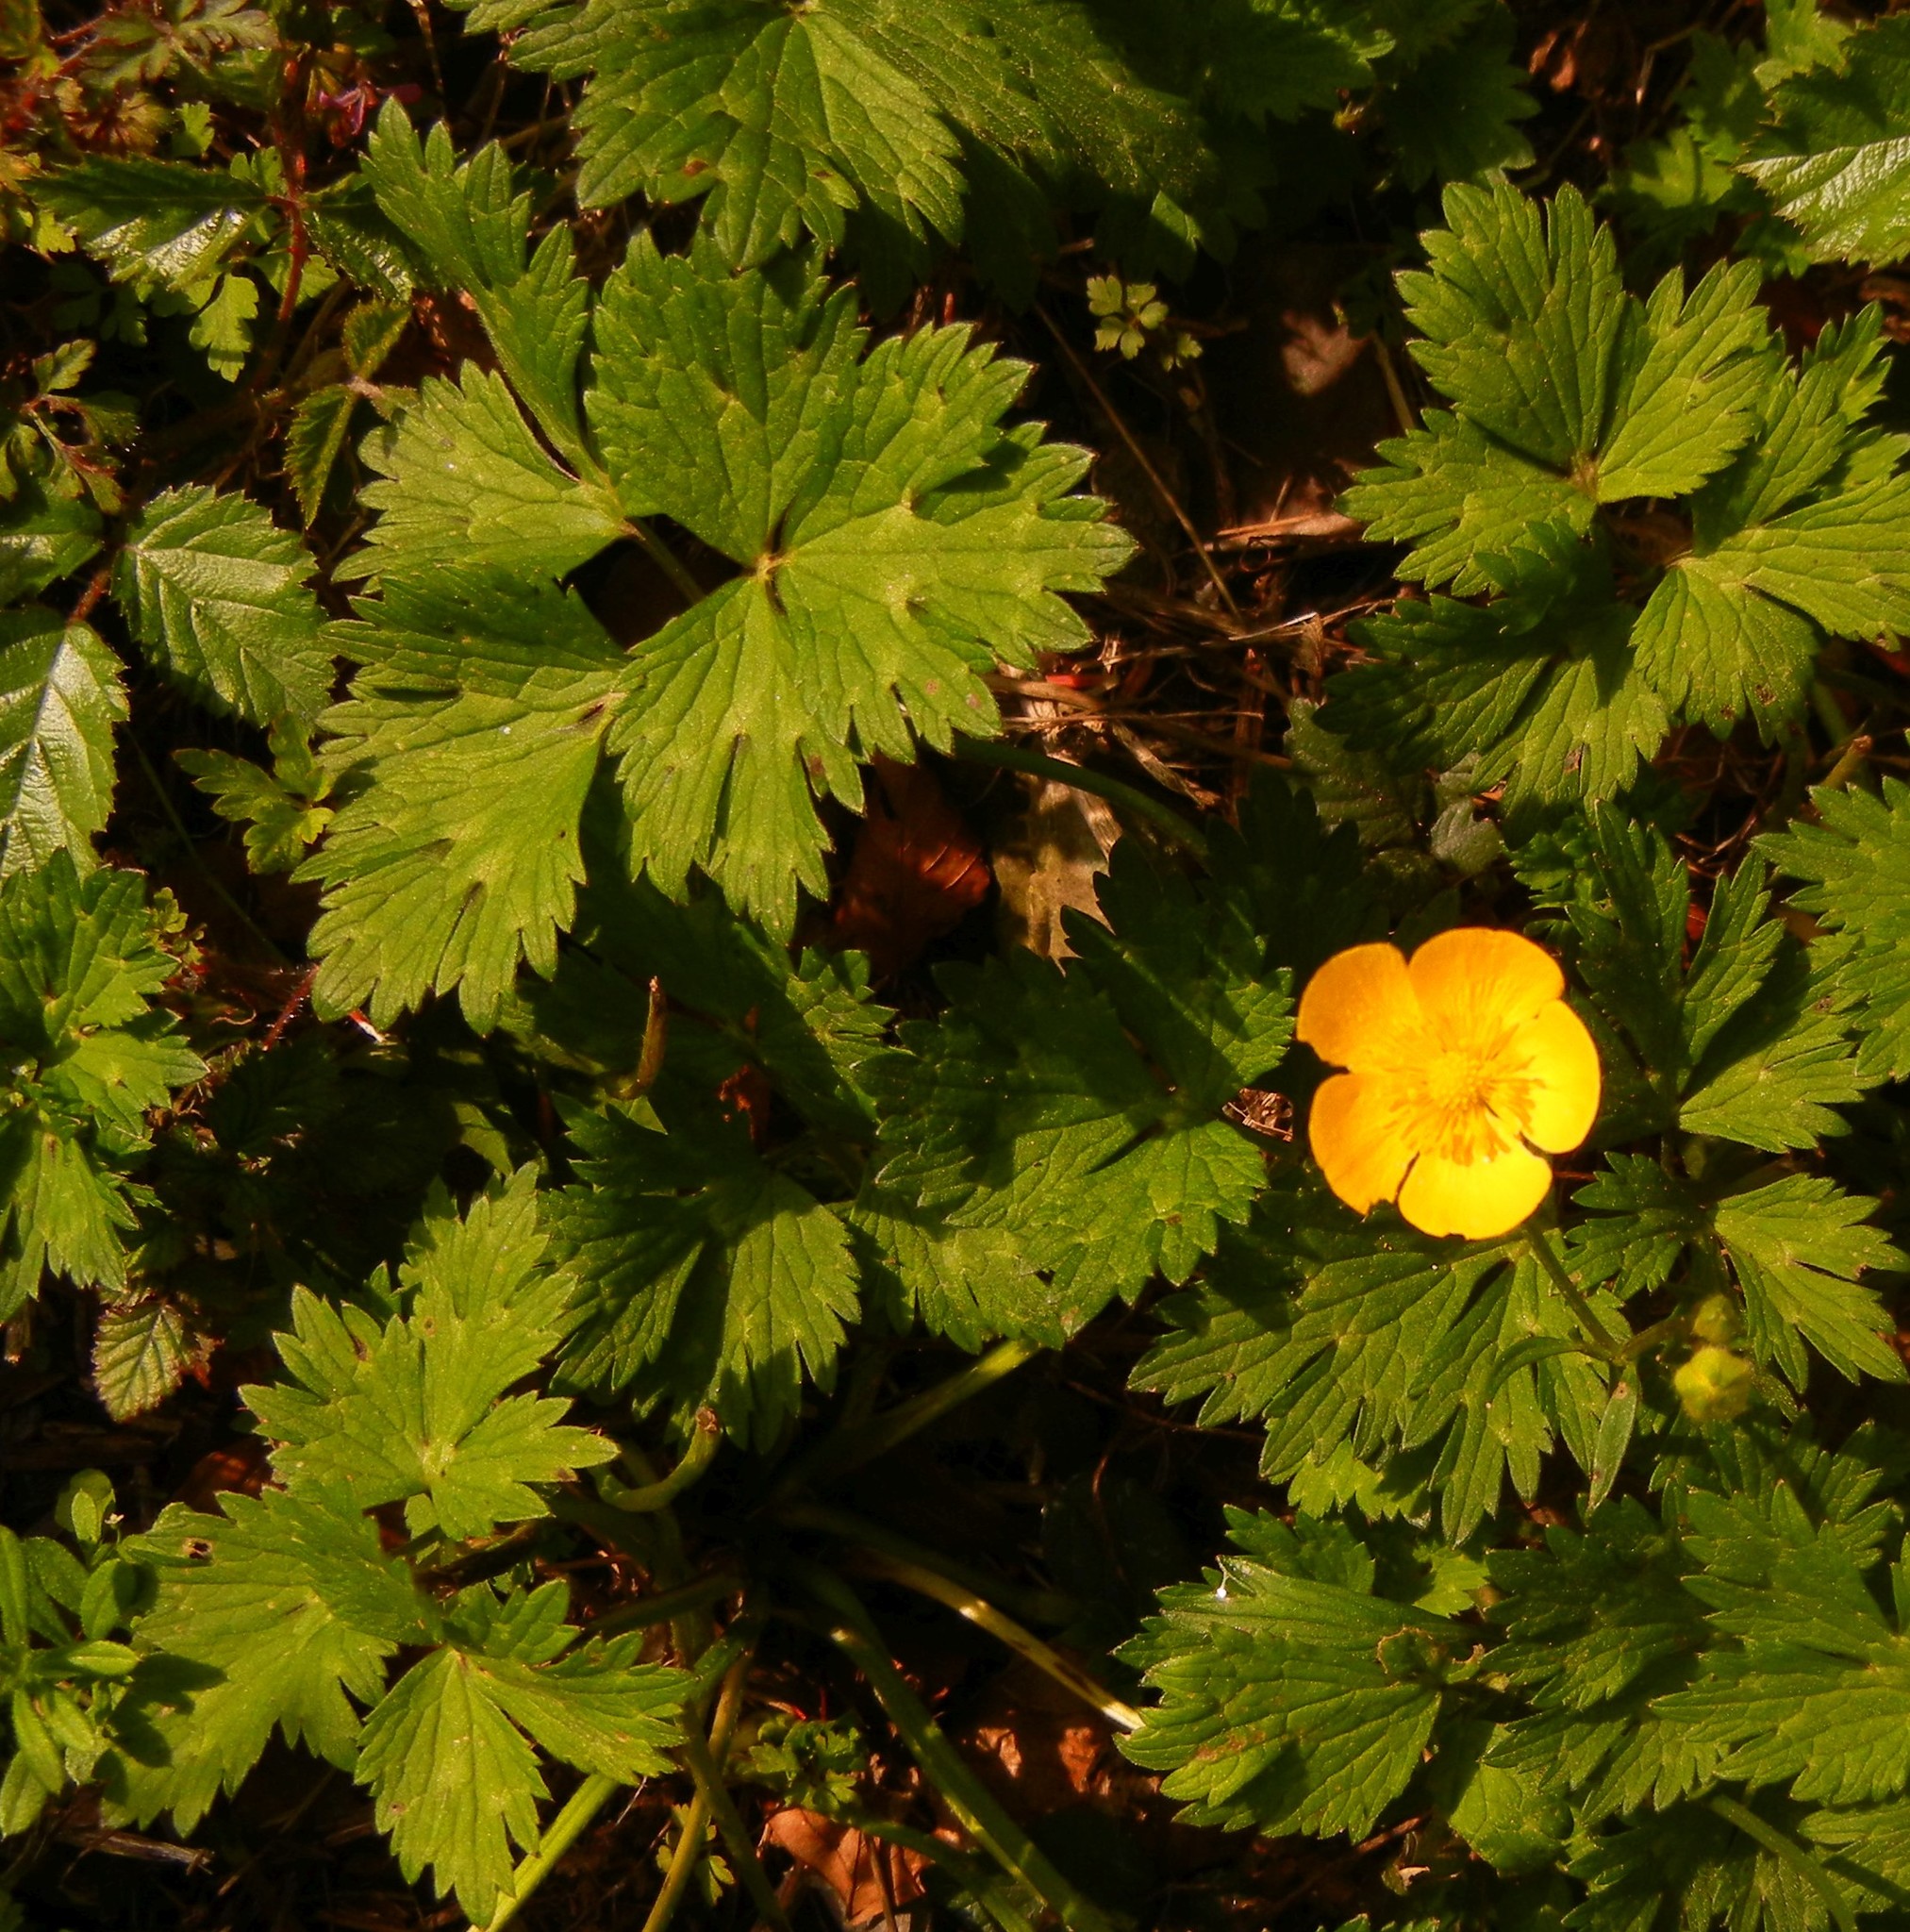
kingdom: Plantae
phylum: Tracheophyta
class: Magnoliopsida
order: Ranunculales
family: Ranunculaceae
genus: Ranunculus
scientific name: Ranunculus repens
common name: Creeping buttercup
